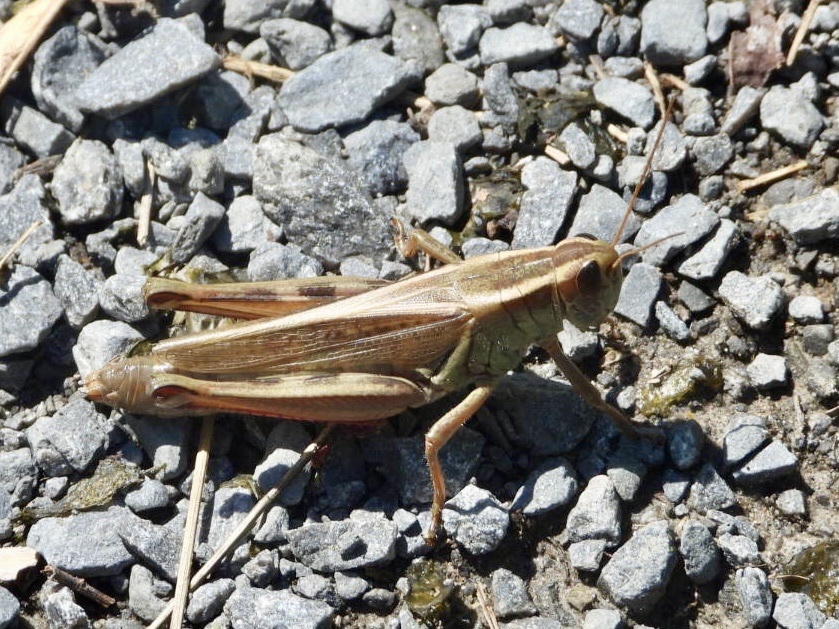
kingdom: Animalia
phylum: Arthropoda
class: Insecta
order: Orthoptera
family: Acrididae
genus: Melanoplus
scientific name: Melanoplus bivittatus
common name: Two-striped grasshopper
